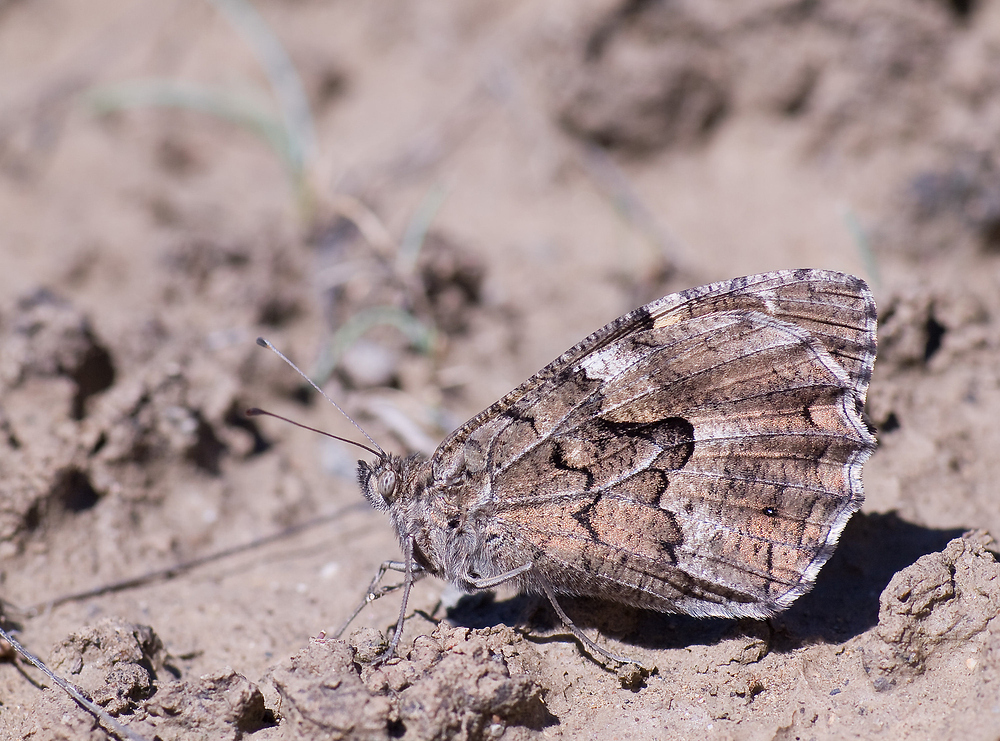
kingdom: Animalia
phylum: Arthropoda
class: Insecta
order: Lepidoptera
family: Nymphalidae
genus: Hipparchia
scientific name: Hipparchia semele
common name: Grayling
